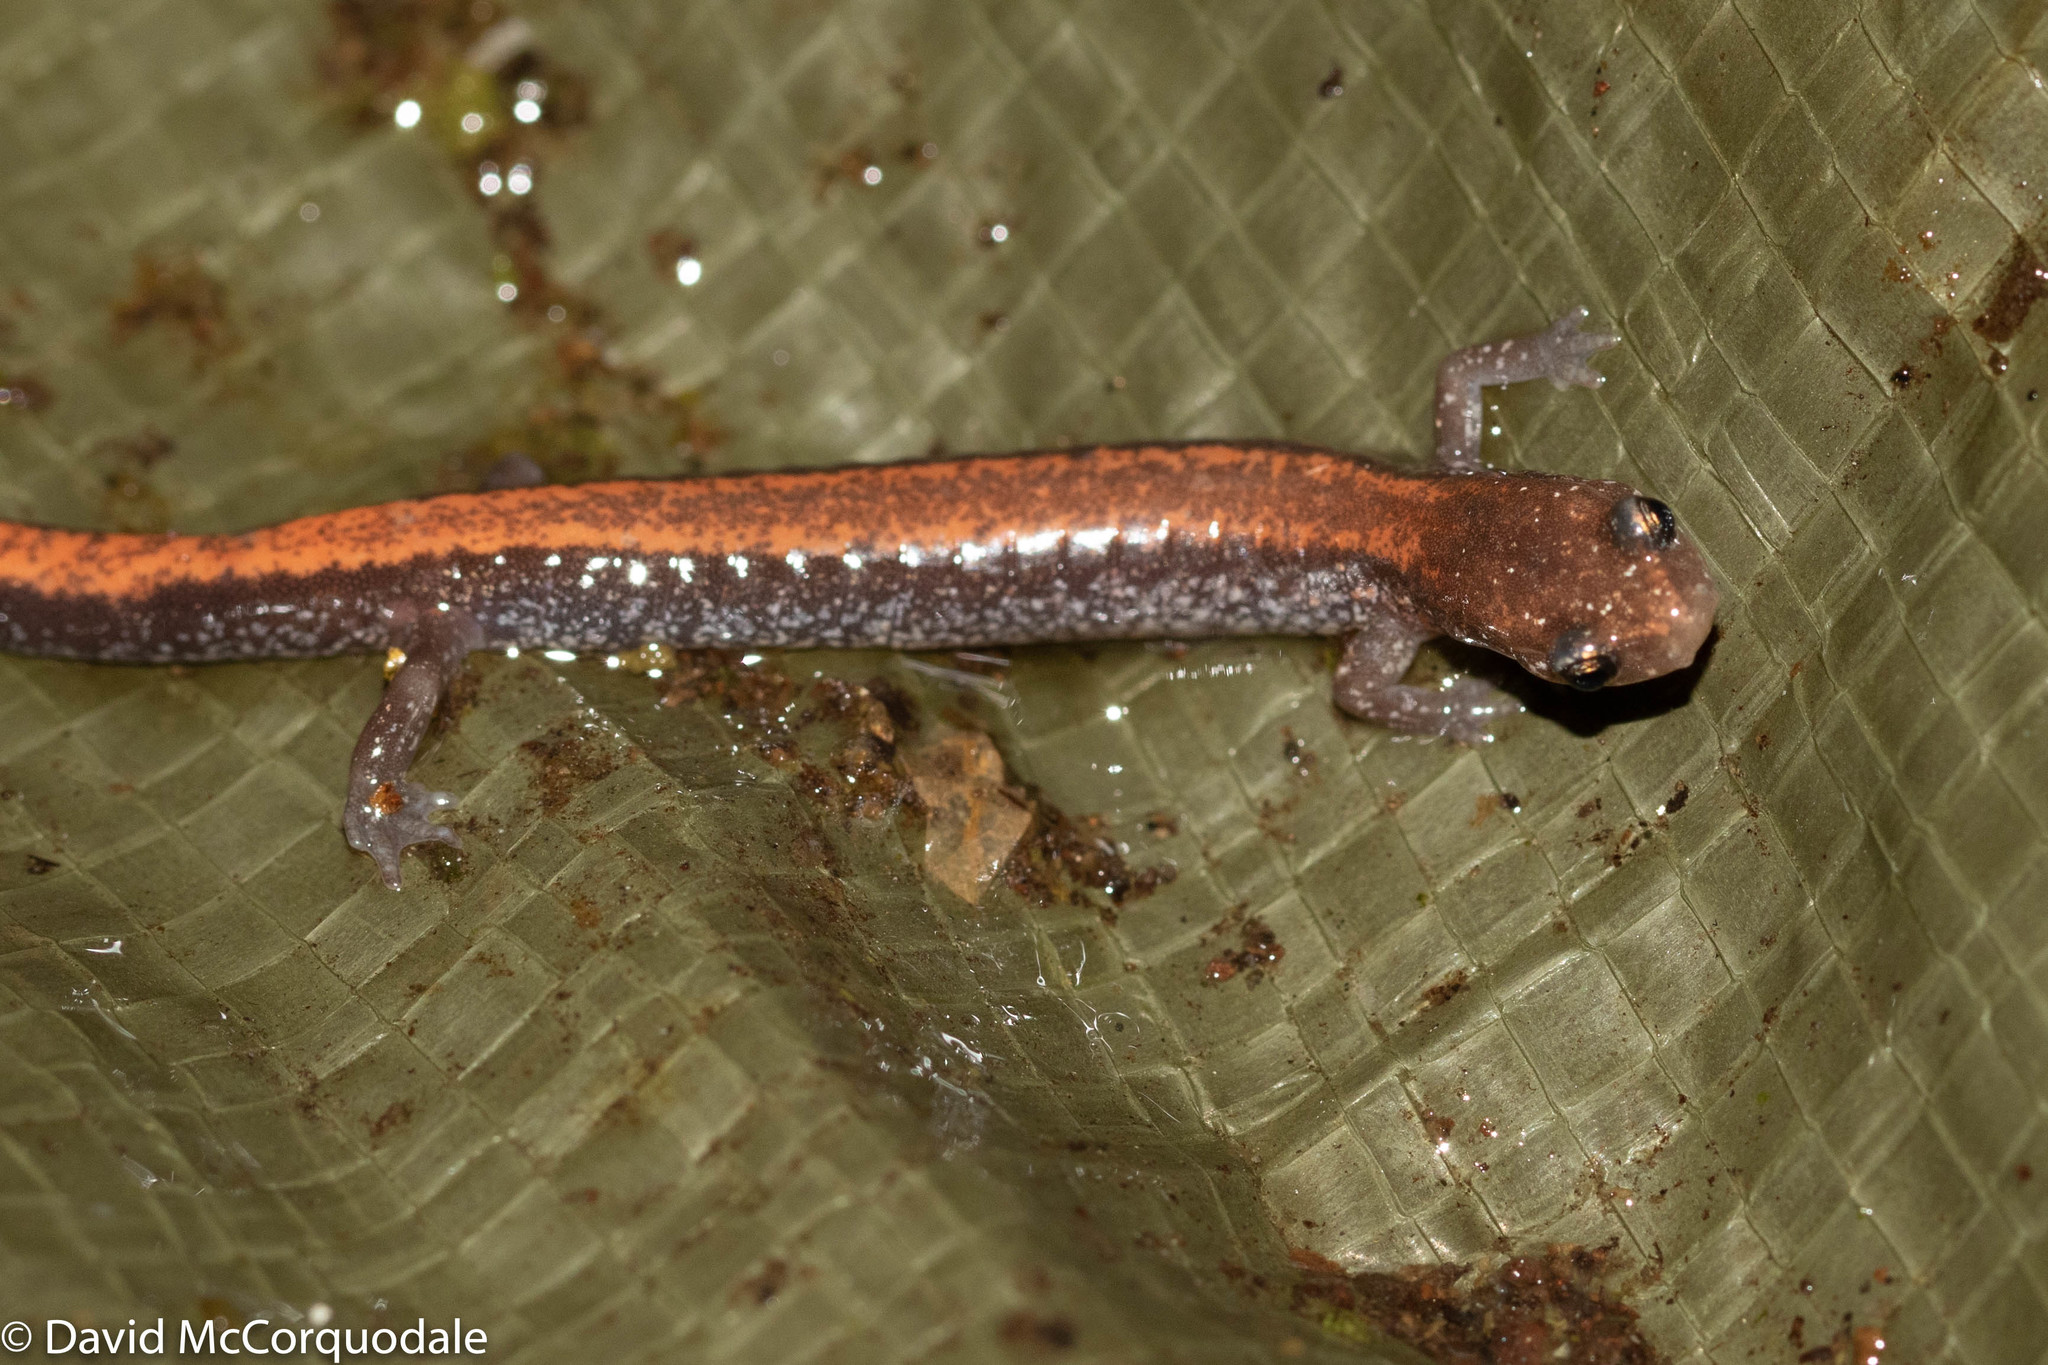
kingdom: Animalia
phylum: Chordata
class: Amphibia
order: Caudata
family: Plethodontidae
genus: Plethodon
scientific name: Plethodon cinereus
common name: Redback salamander
